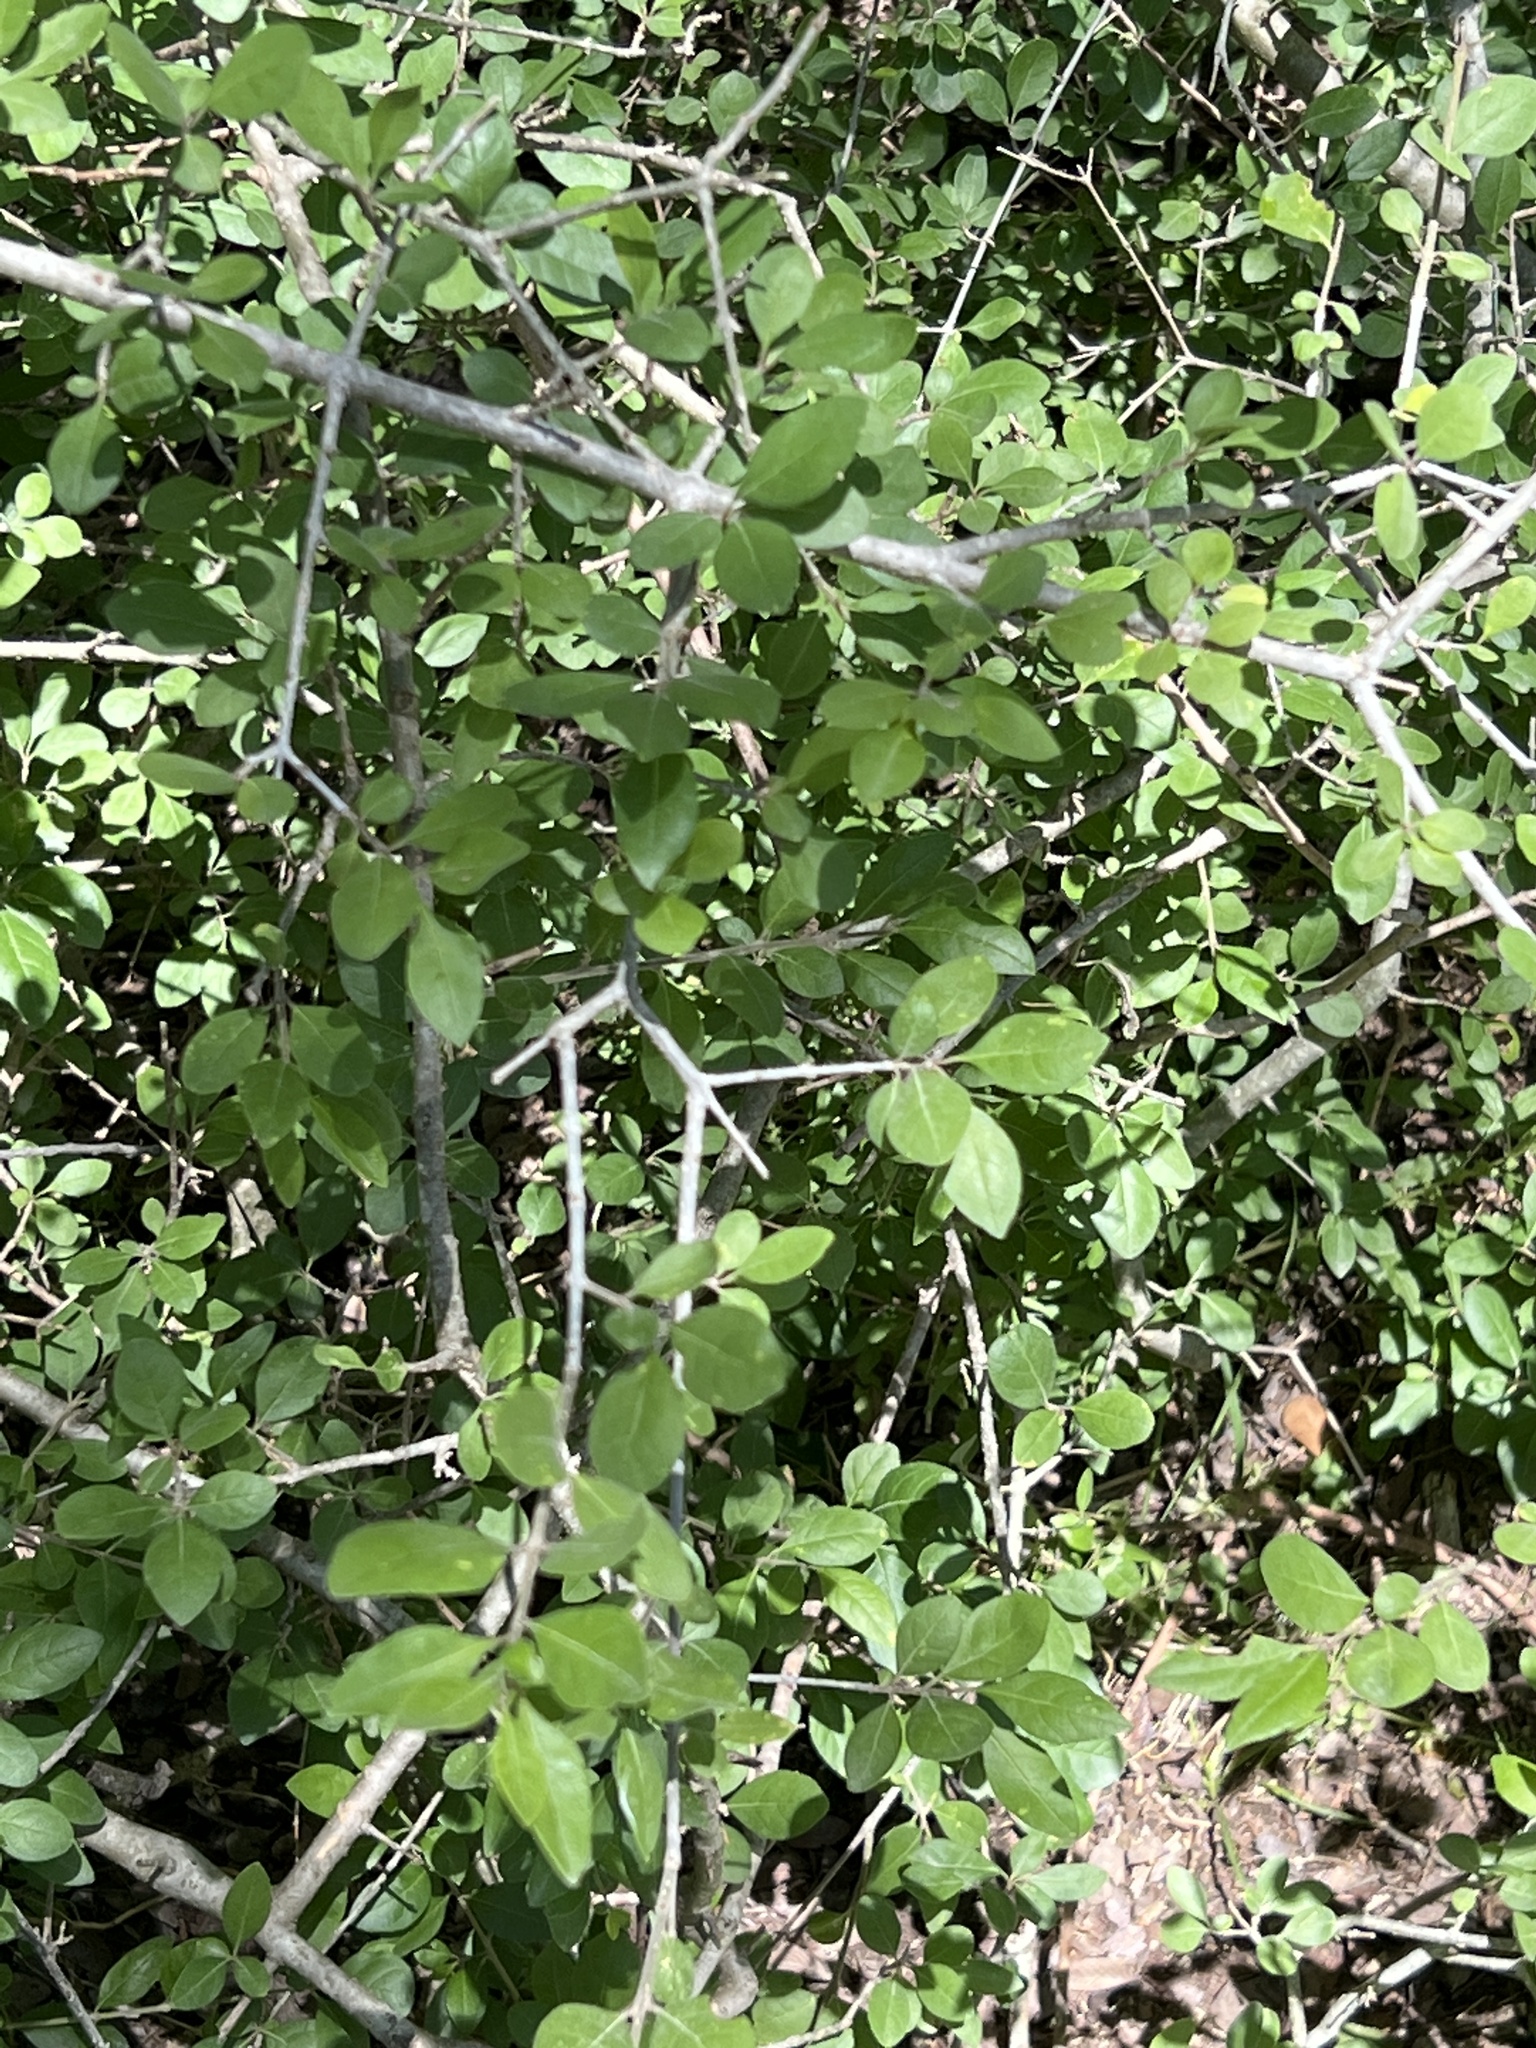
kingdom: Plantae
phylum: Tracheophyta
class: Magnoliopsida
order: Lamiales
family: Oleaceae
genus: Forestiera
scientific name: Forestiera pubescens
